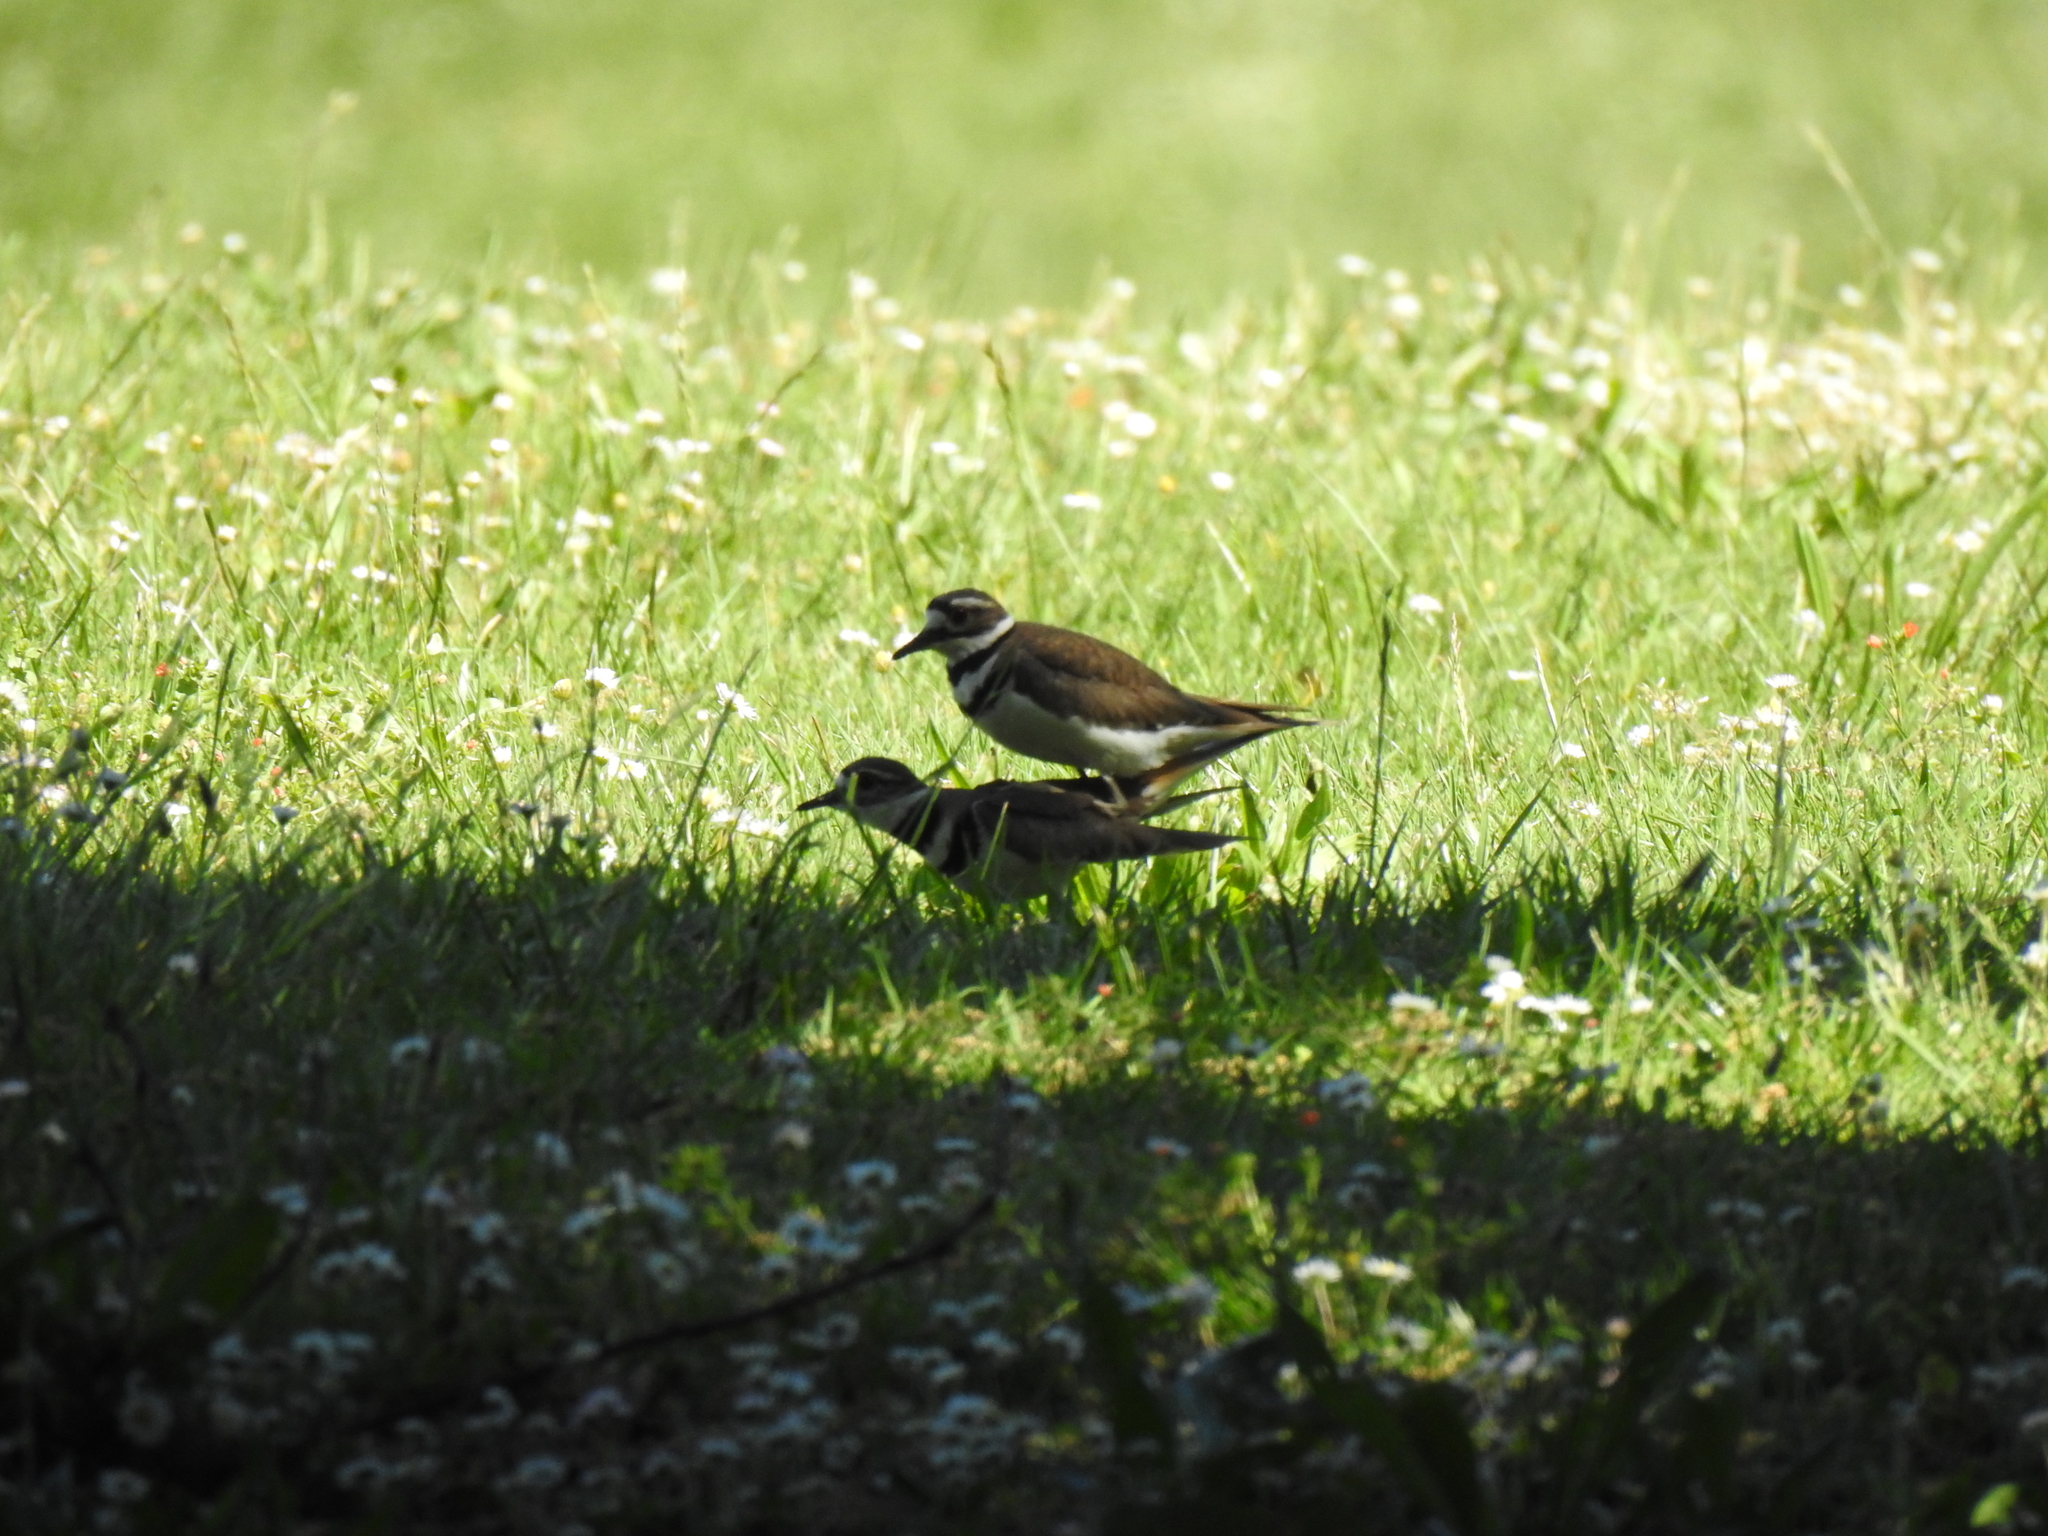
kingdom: Animalia
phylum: Chordata
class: Aves
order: Charadriiformes
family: Charadriidae
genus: Charadrius
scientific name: Charadrius vociferus
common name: Killdeer
